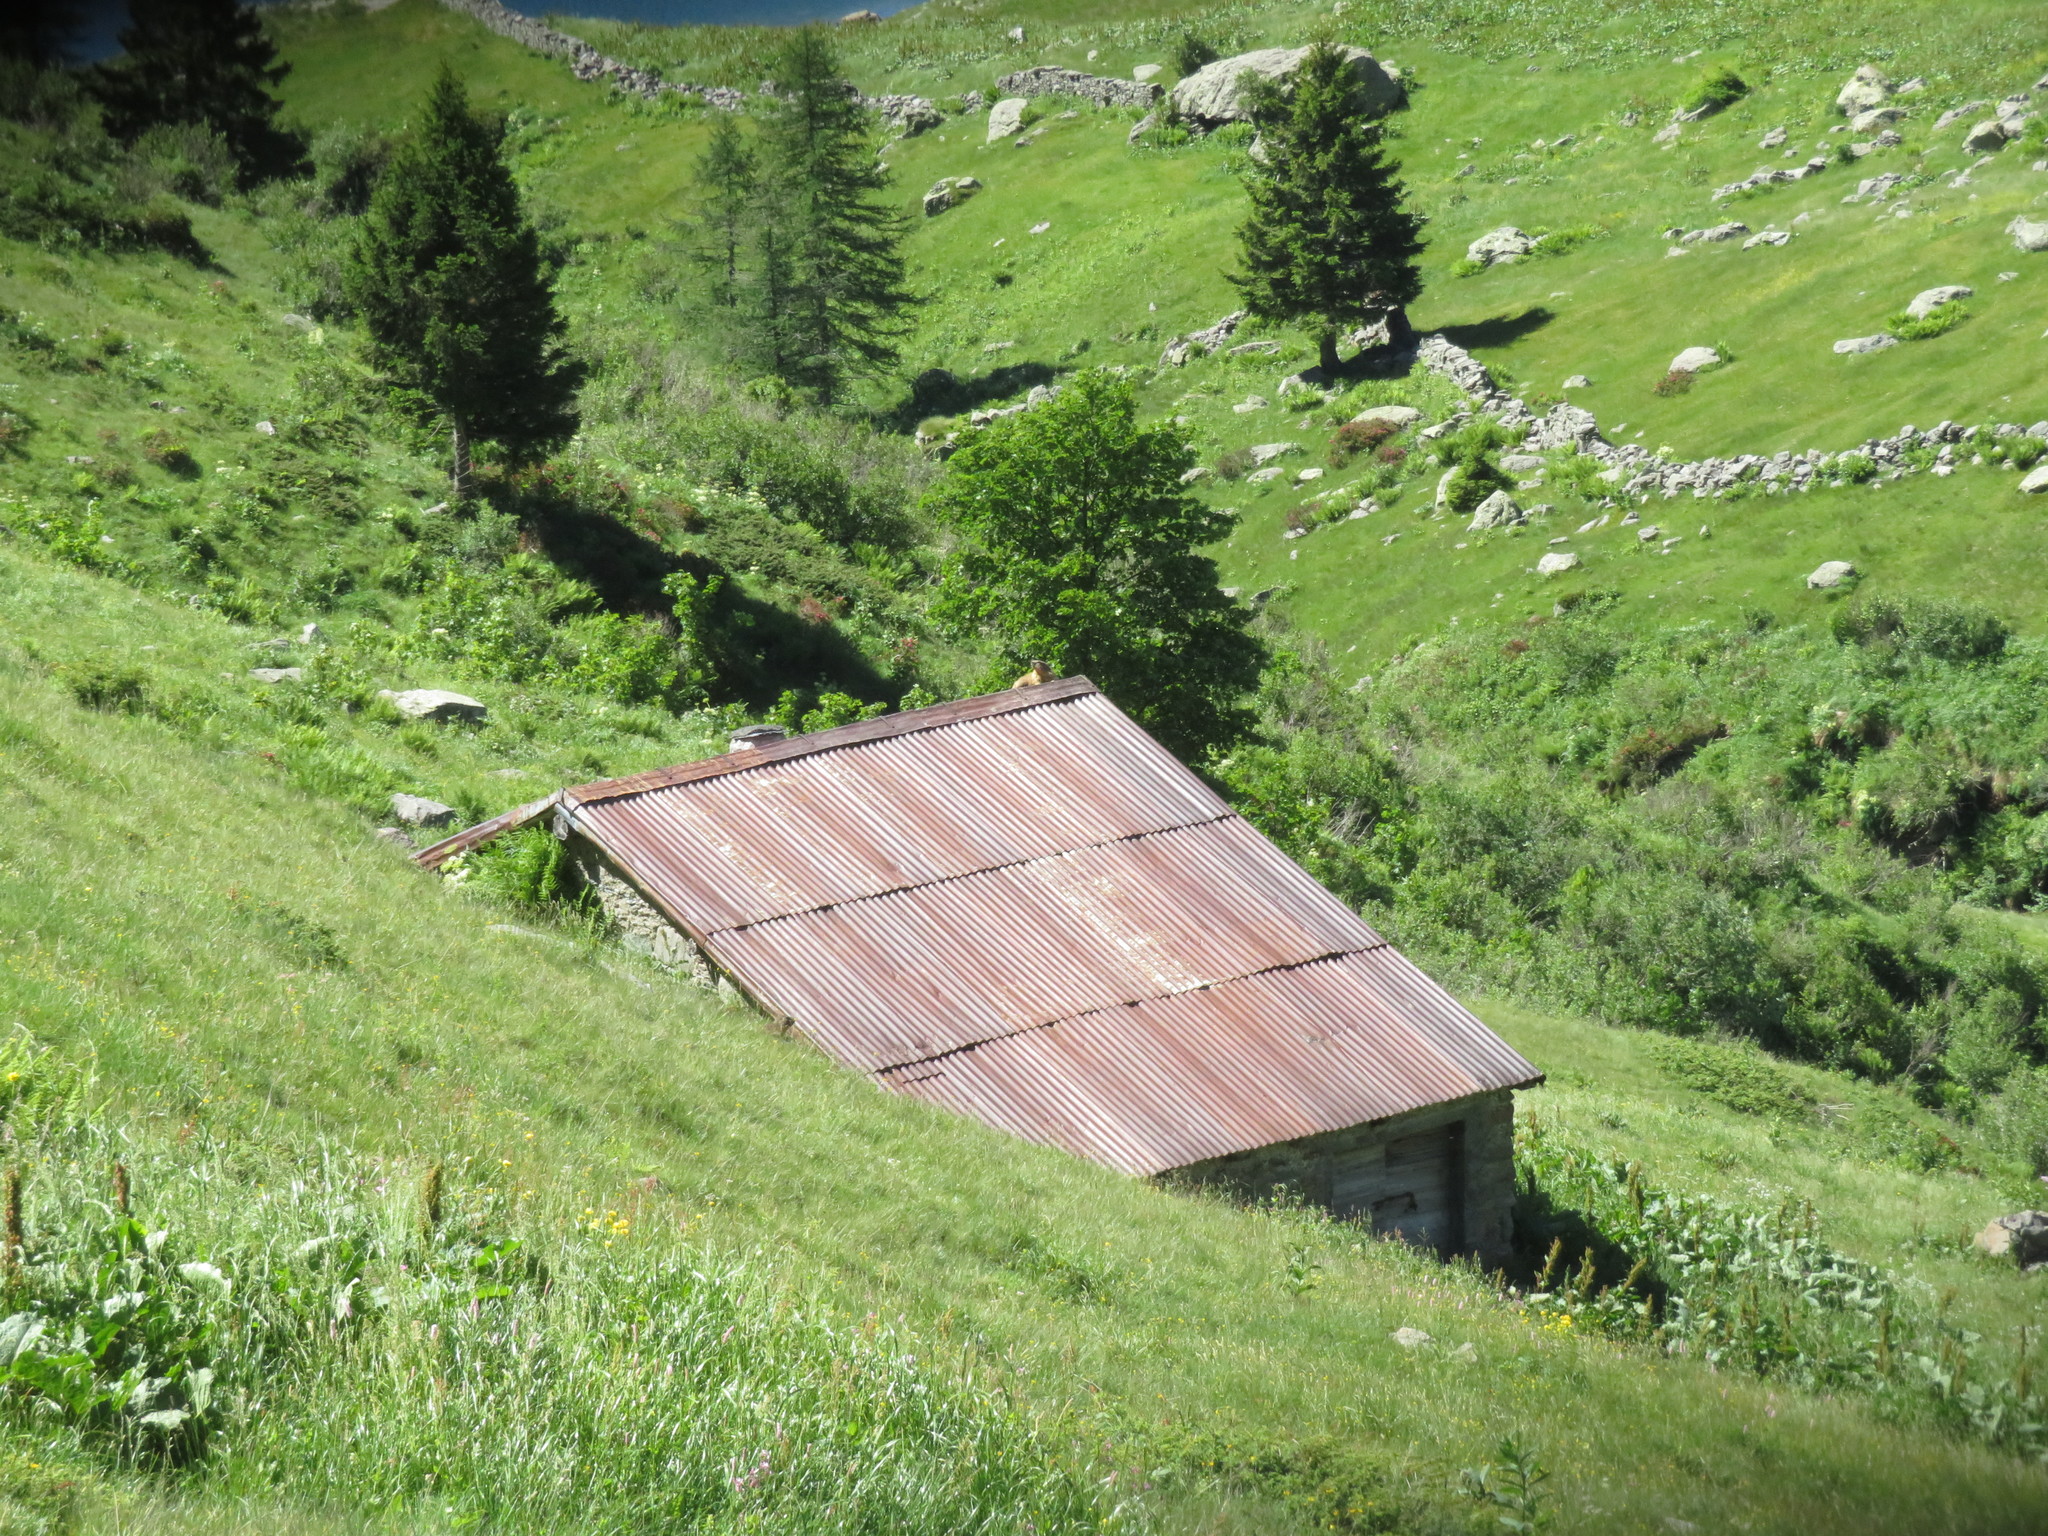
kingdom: Animalia
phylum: Chordata
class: Mammalia
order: Rodentia
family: Sciuridae
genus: Marmota
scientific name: Marmota marmota
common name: Alpine marmot
